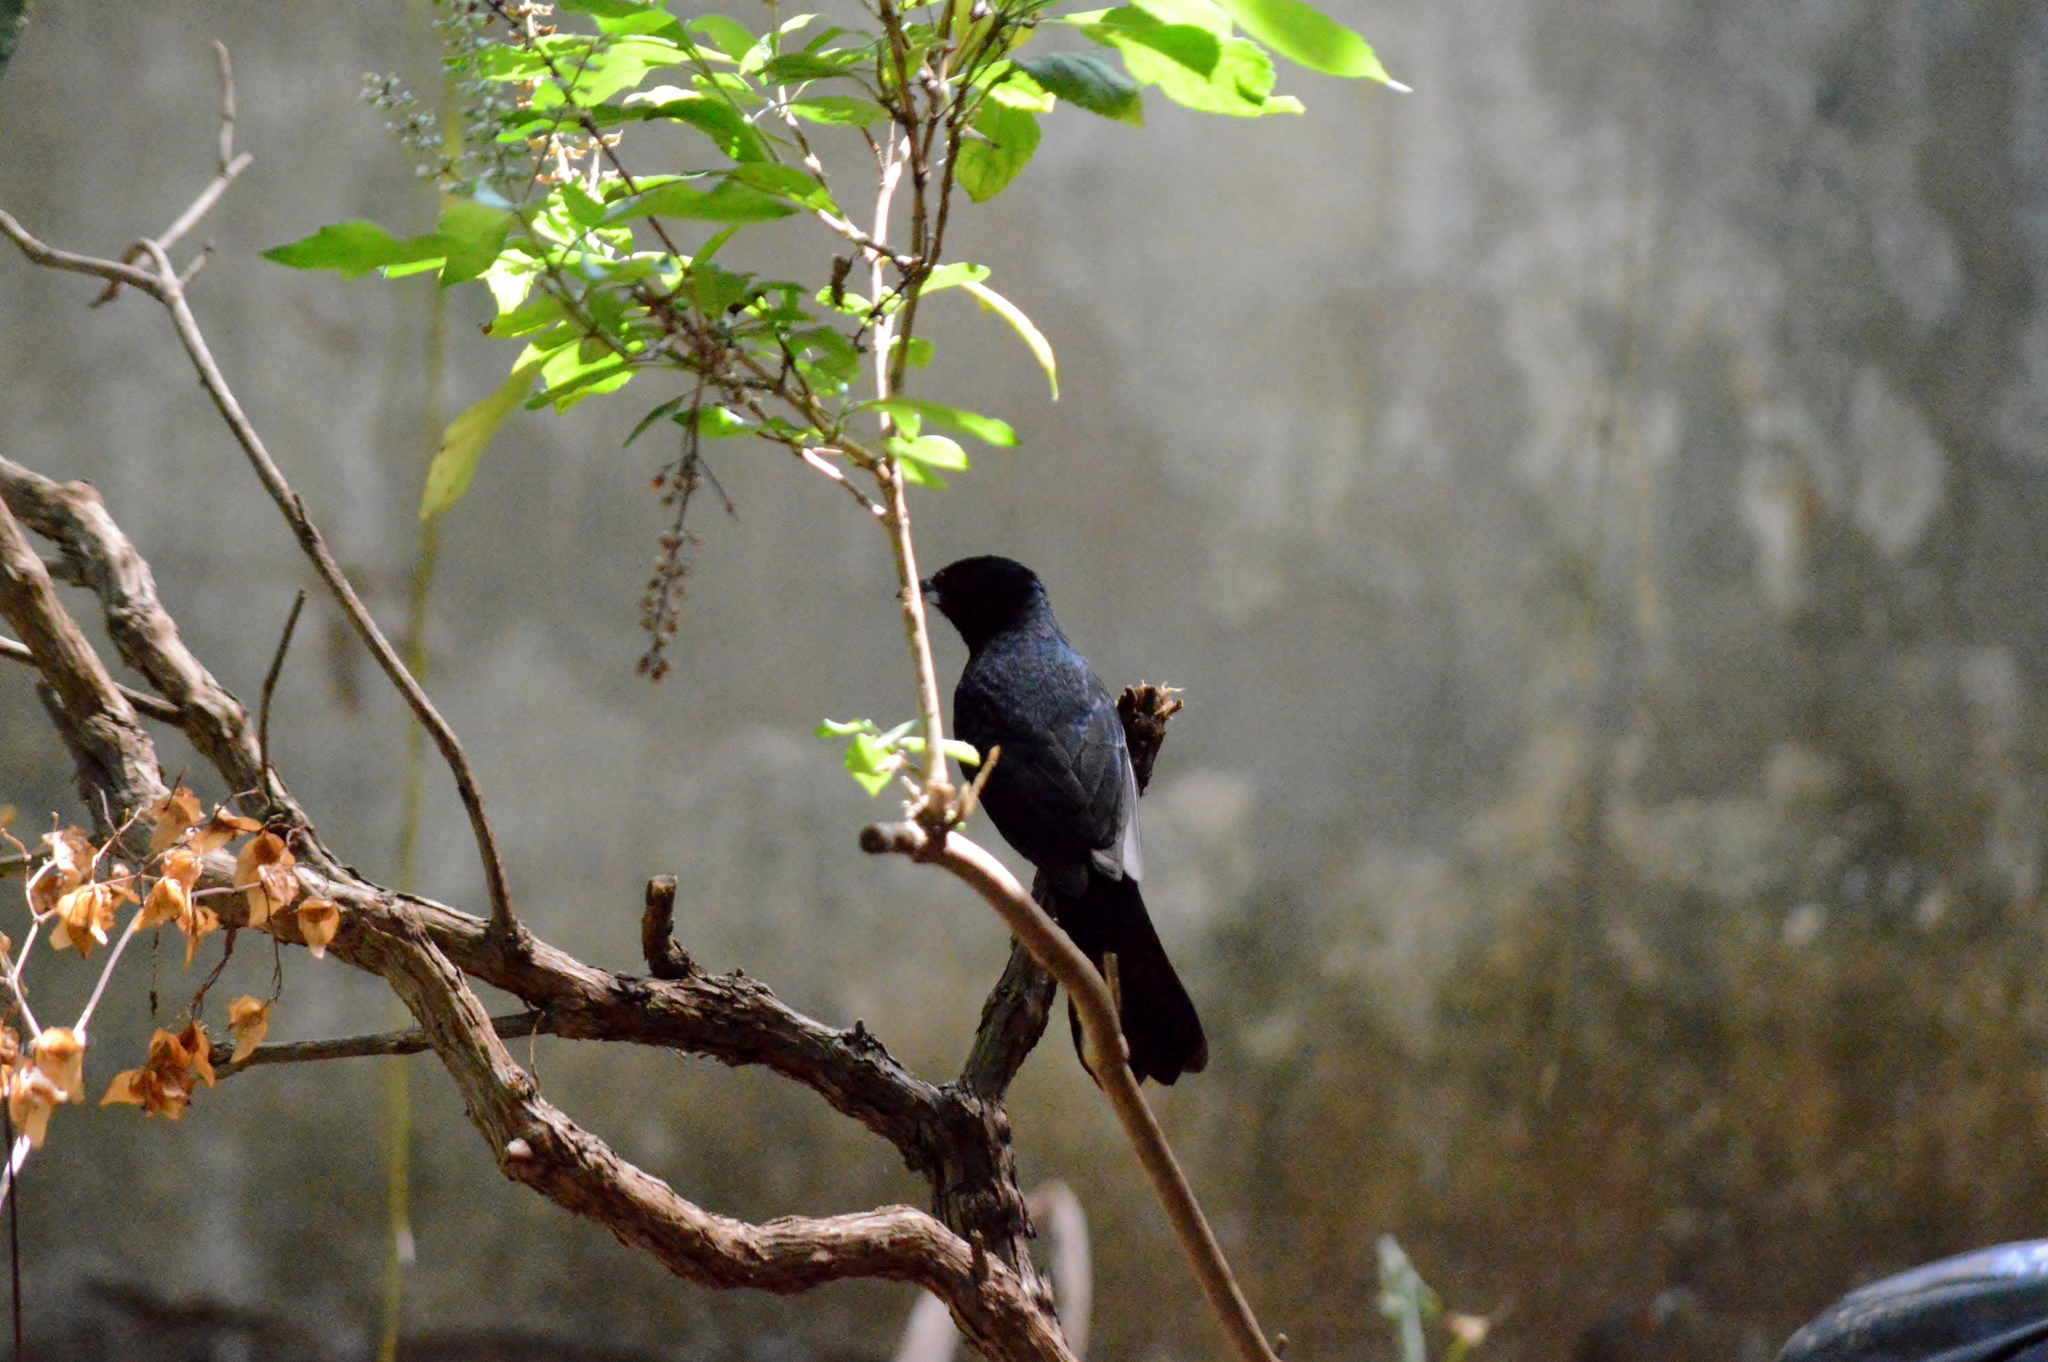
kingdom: Animalia
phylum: Chordata
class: Aves
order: Passeriformes
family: Thraupidae
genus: Tachyphonus
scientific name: Tachyphonus rufus
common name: White-lined tanager
